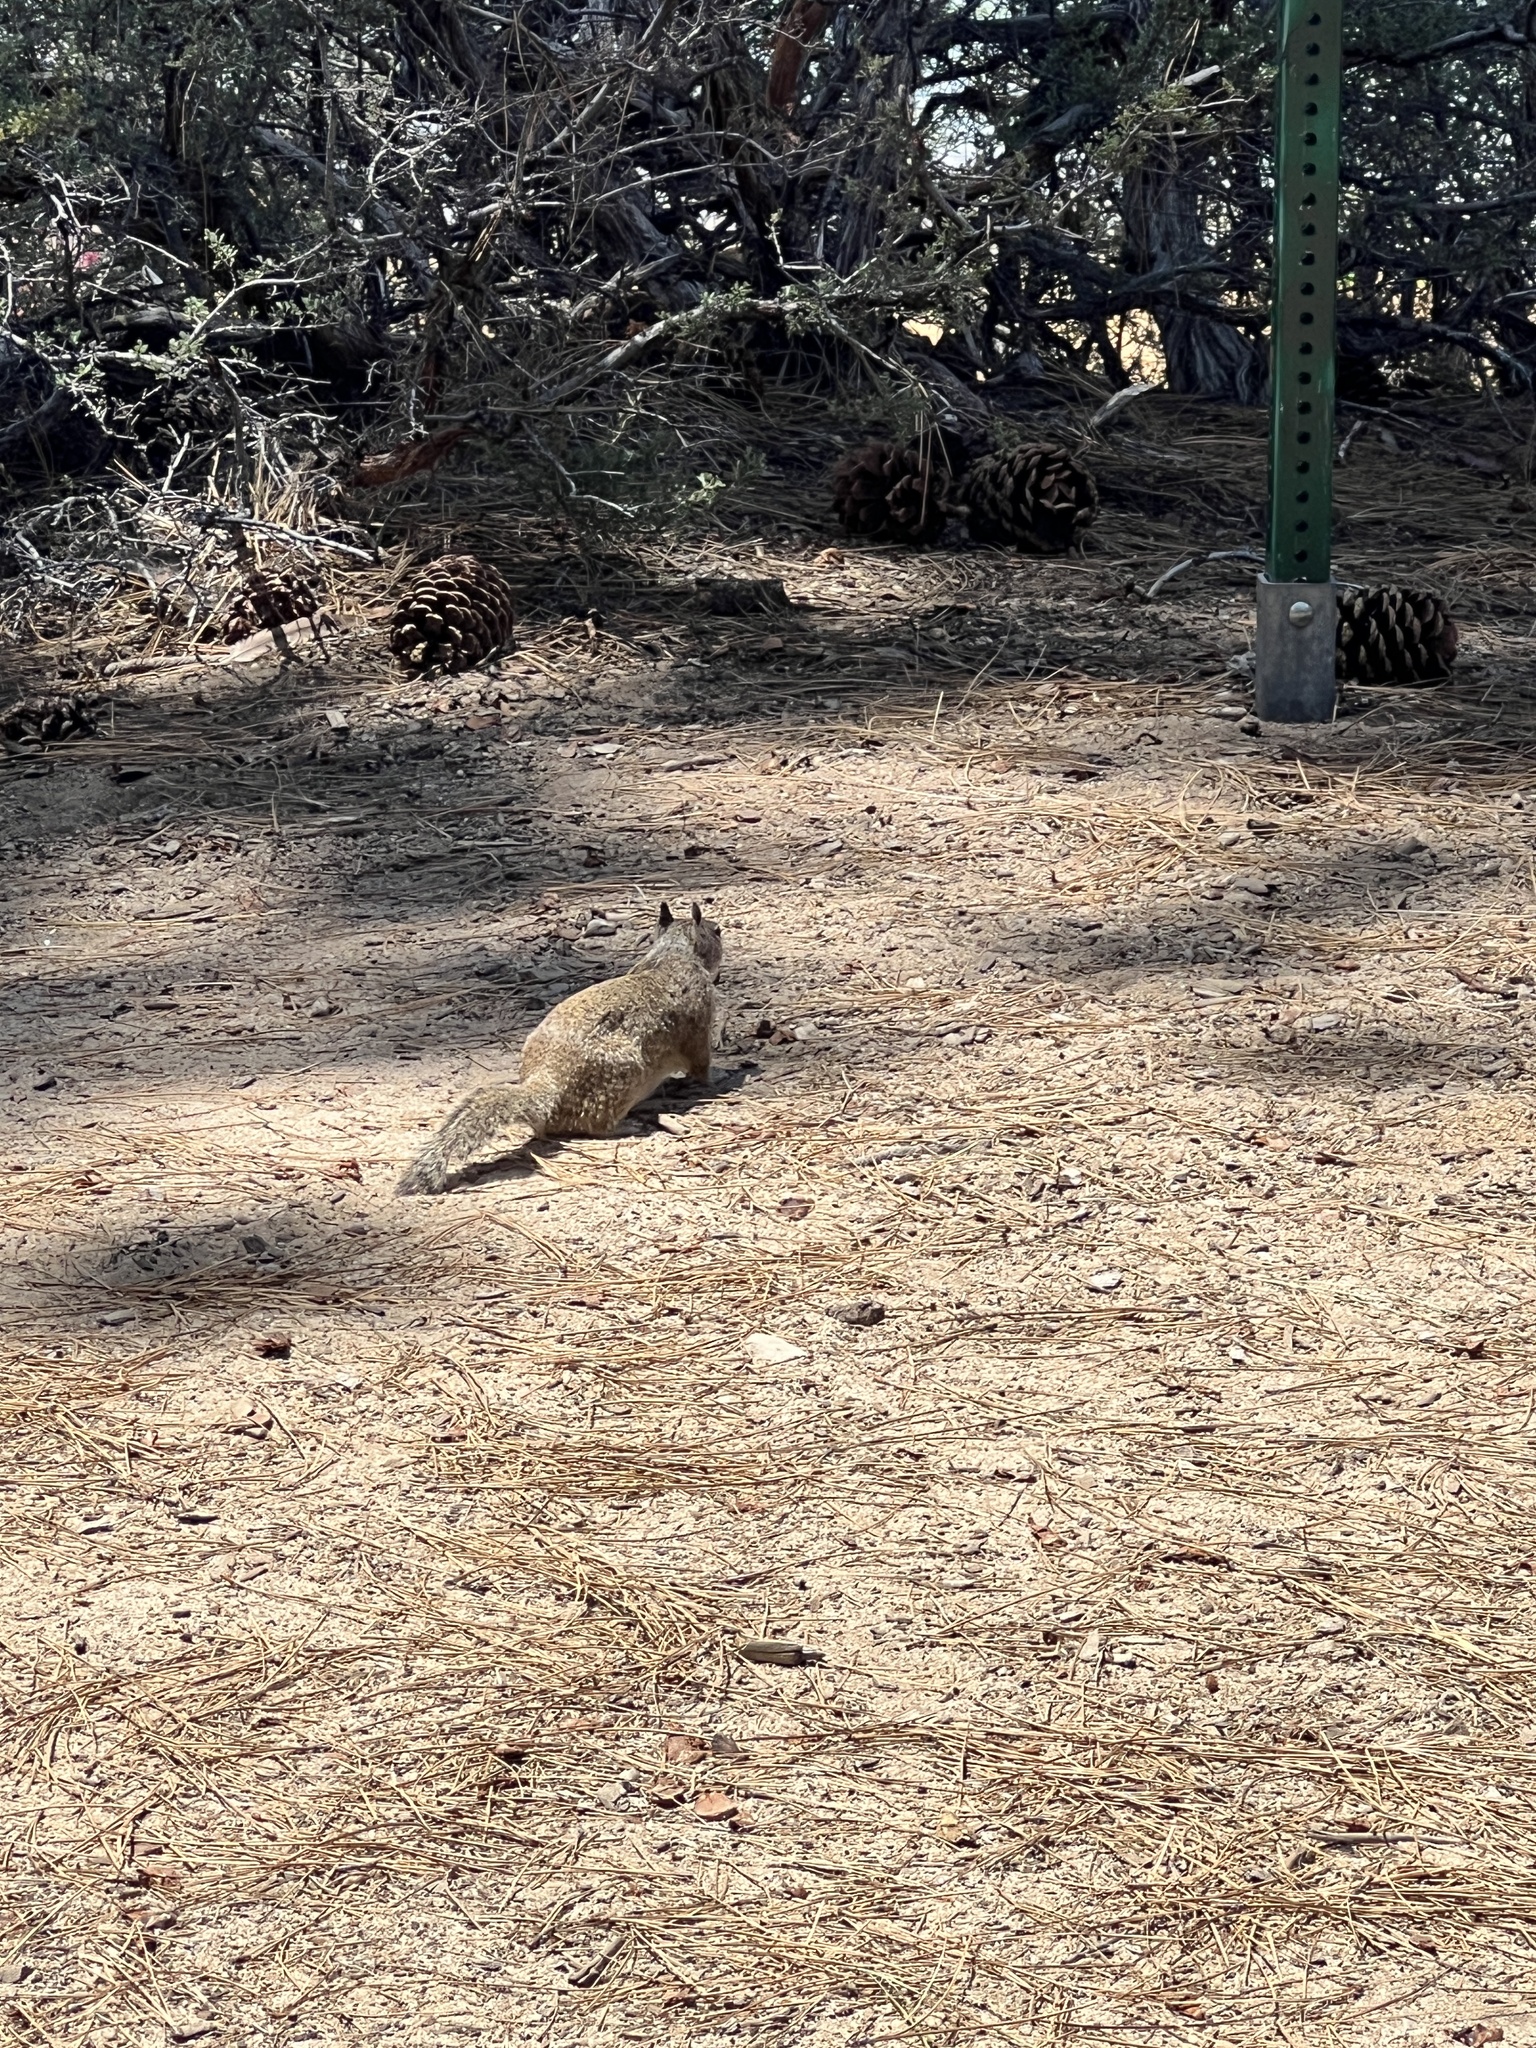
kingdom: Animalia
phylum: Chordata
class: Mammalia
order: Rodentia
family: Sciuridae
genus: Otospermophilus
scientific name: Otospermophilus beecheyi
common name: California ground squirrel
